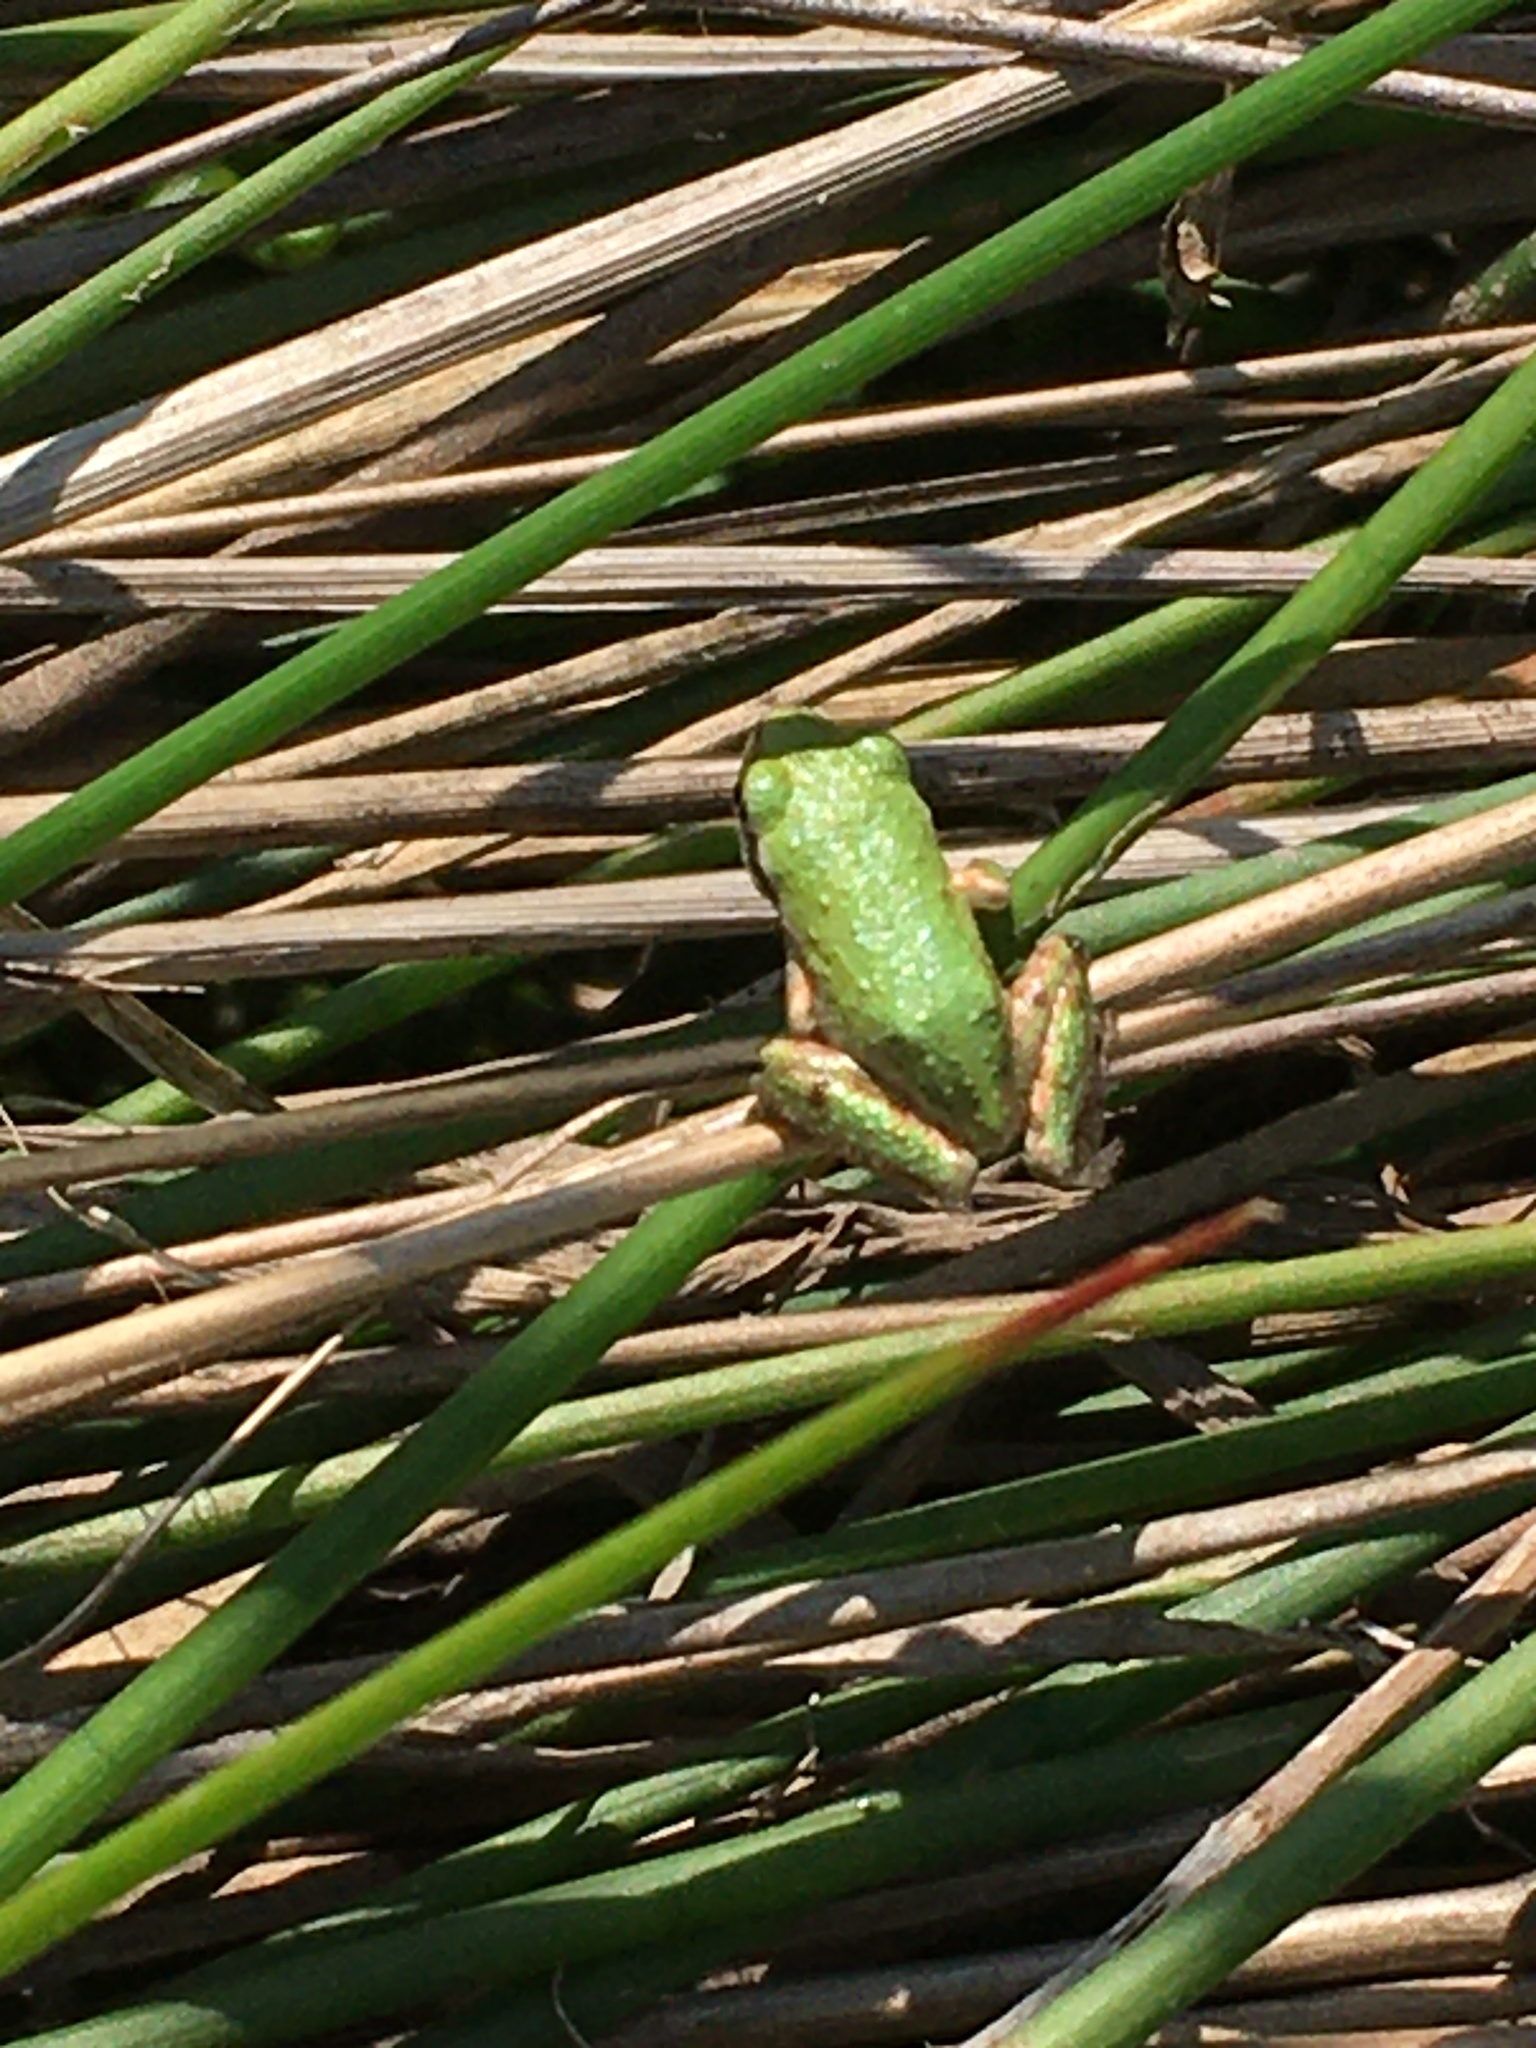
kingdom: Animalia
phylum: Chordata
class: Amphibia
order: Anura
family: Hylidae
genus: Pseudacris
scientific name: Pseudacris regilla
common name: Pacific chorus frog
